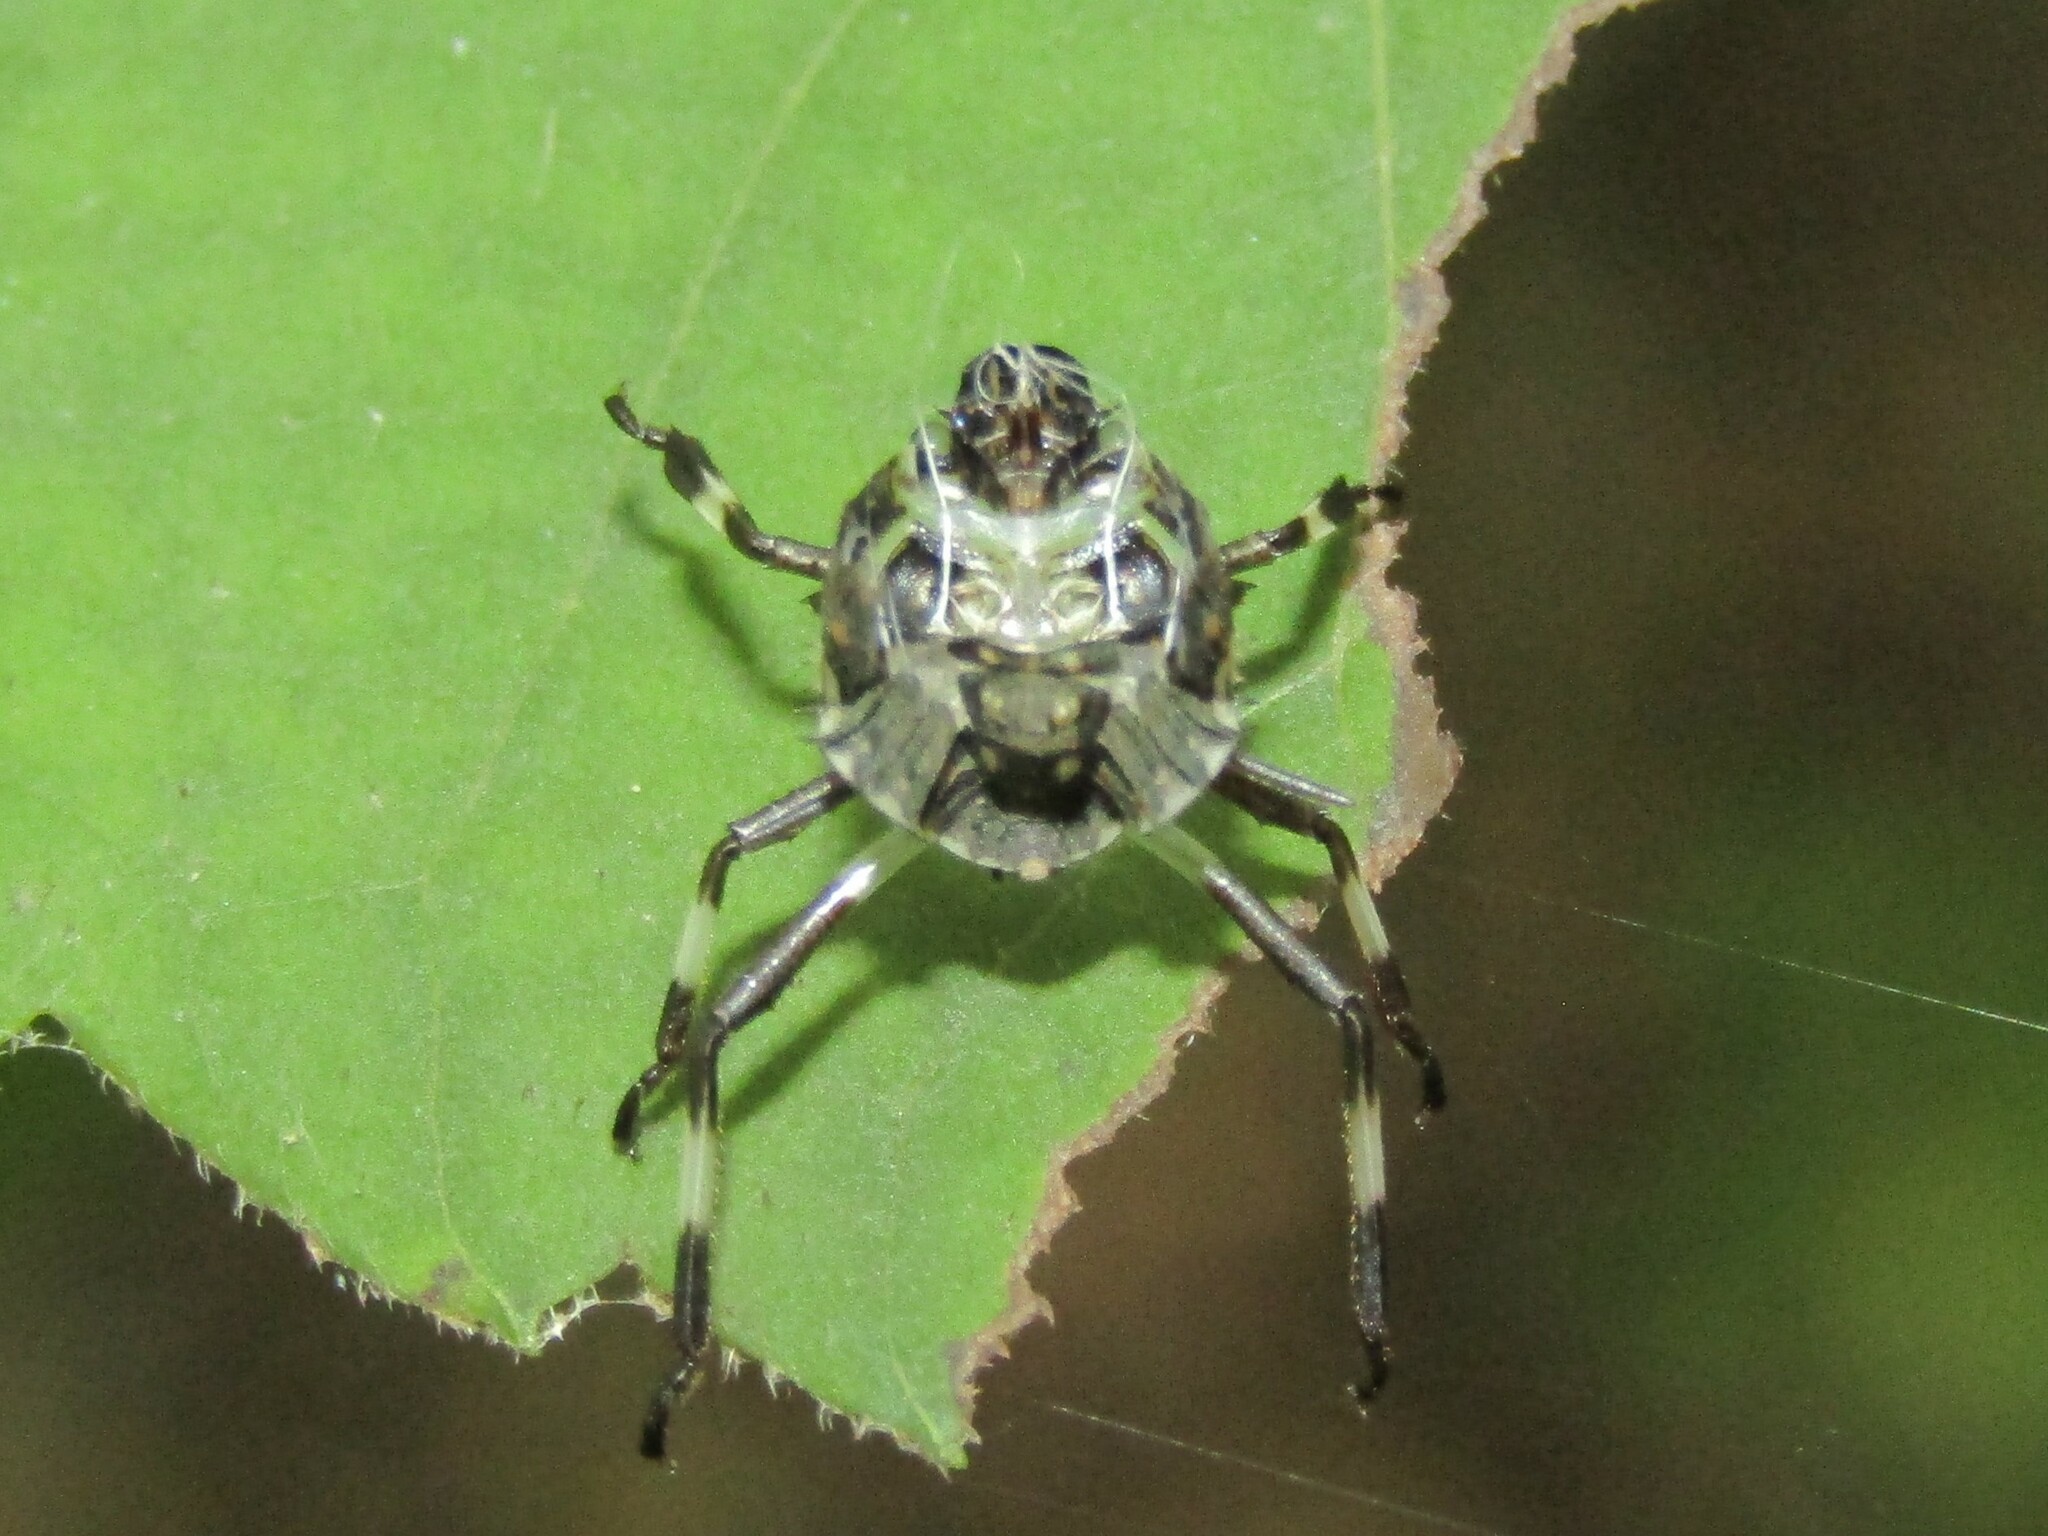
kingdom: Animalia
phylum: Arthropoda
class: Insecta
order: Hemiptera
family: Pentatomidae
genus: Halyomorpha
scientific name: Halyomorpha halys
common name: Brown marmorated stink bug
